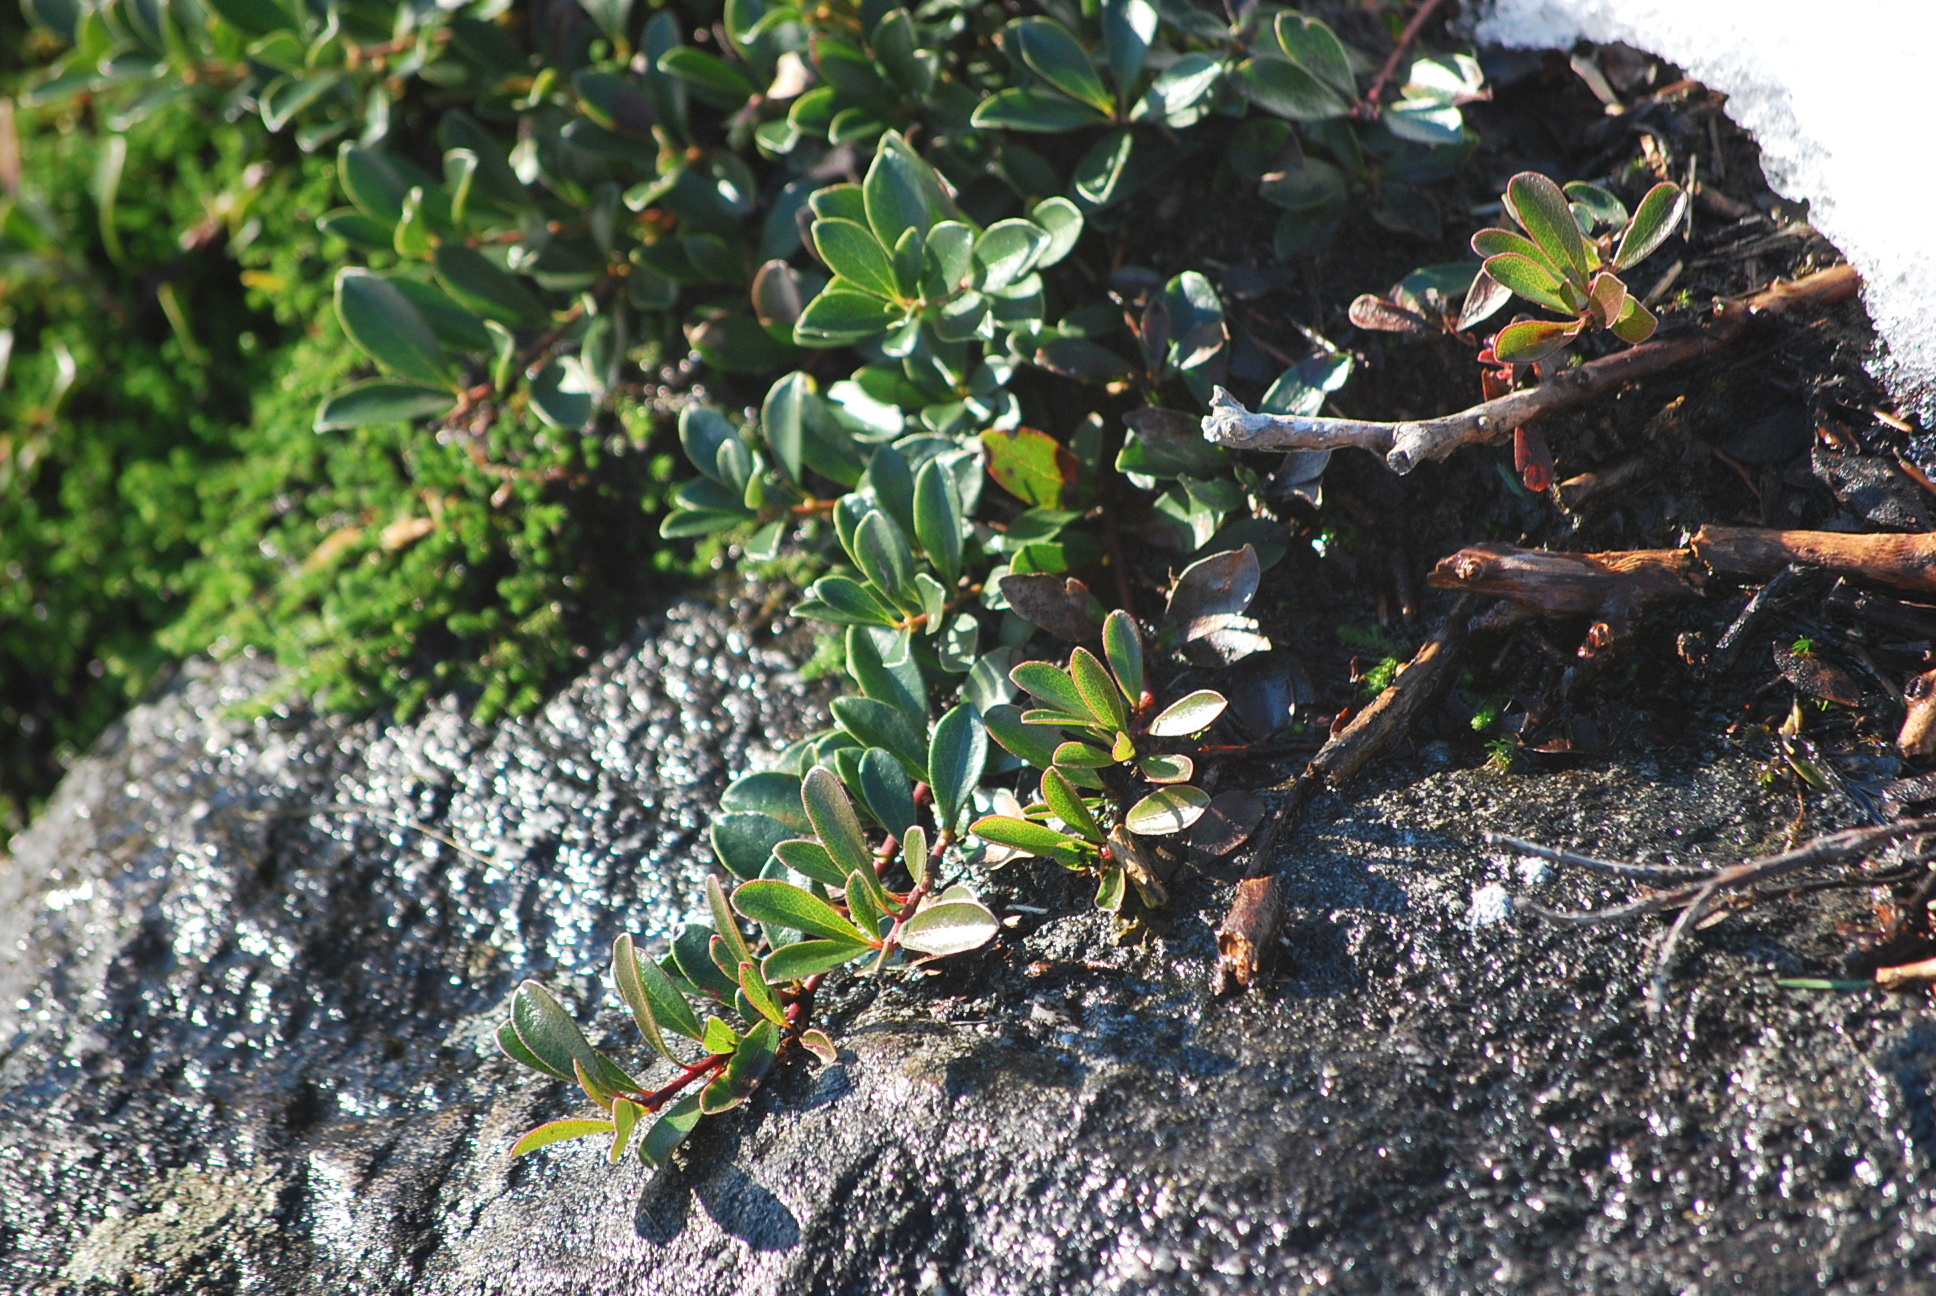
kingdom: Plantae
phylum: Tracheophyta
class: Magnoliopsida
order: Ericales
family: Ericaceae
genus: Arctostaphylos
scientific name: Arctostaphylos uva-ursi
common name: Bearberry
